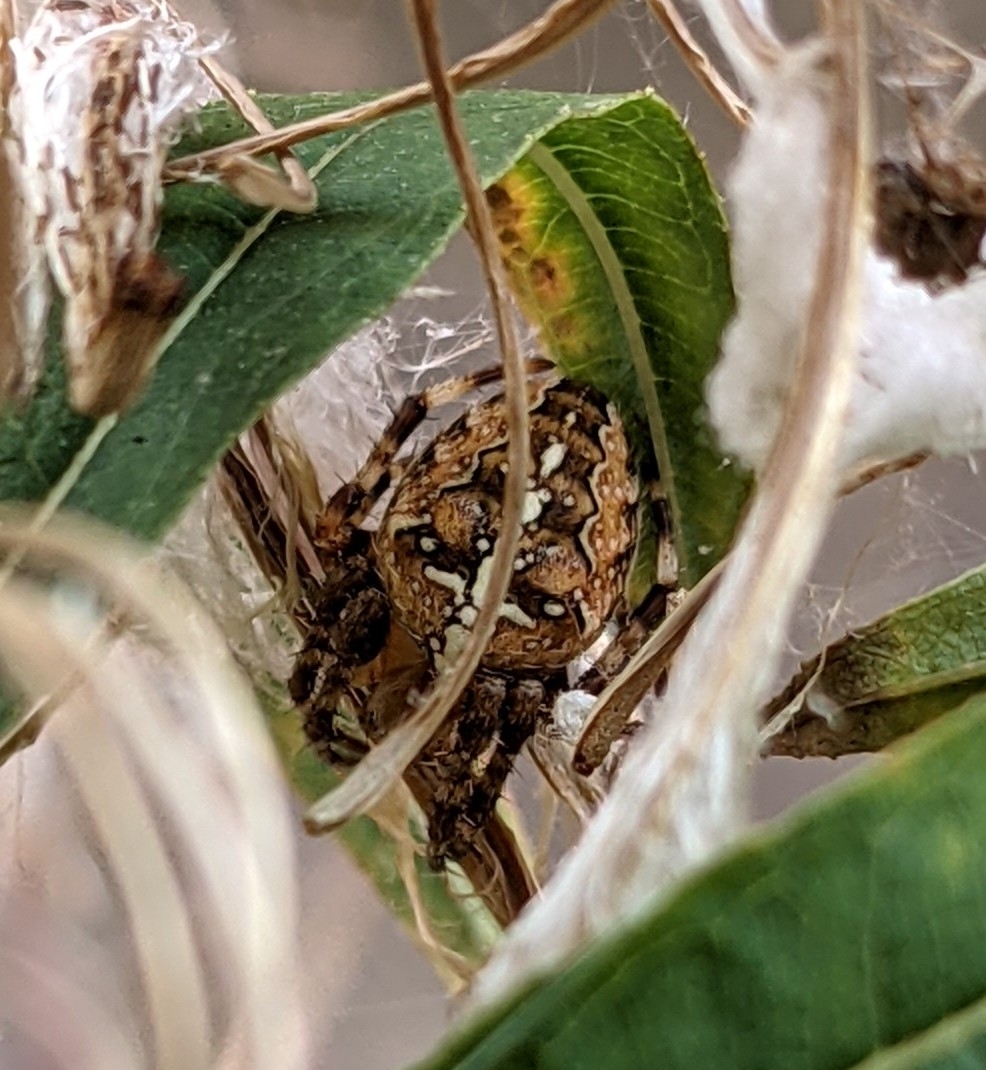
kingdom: Animalia
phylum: Arthropoda
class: Arachnida
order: Araneae
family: Araneidae
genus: Araneus
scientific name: Araneus diadematus
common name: Cross orbweaver
